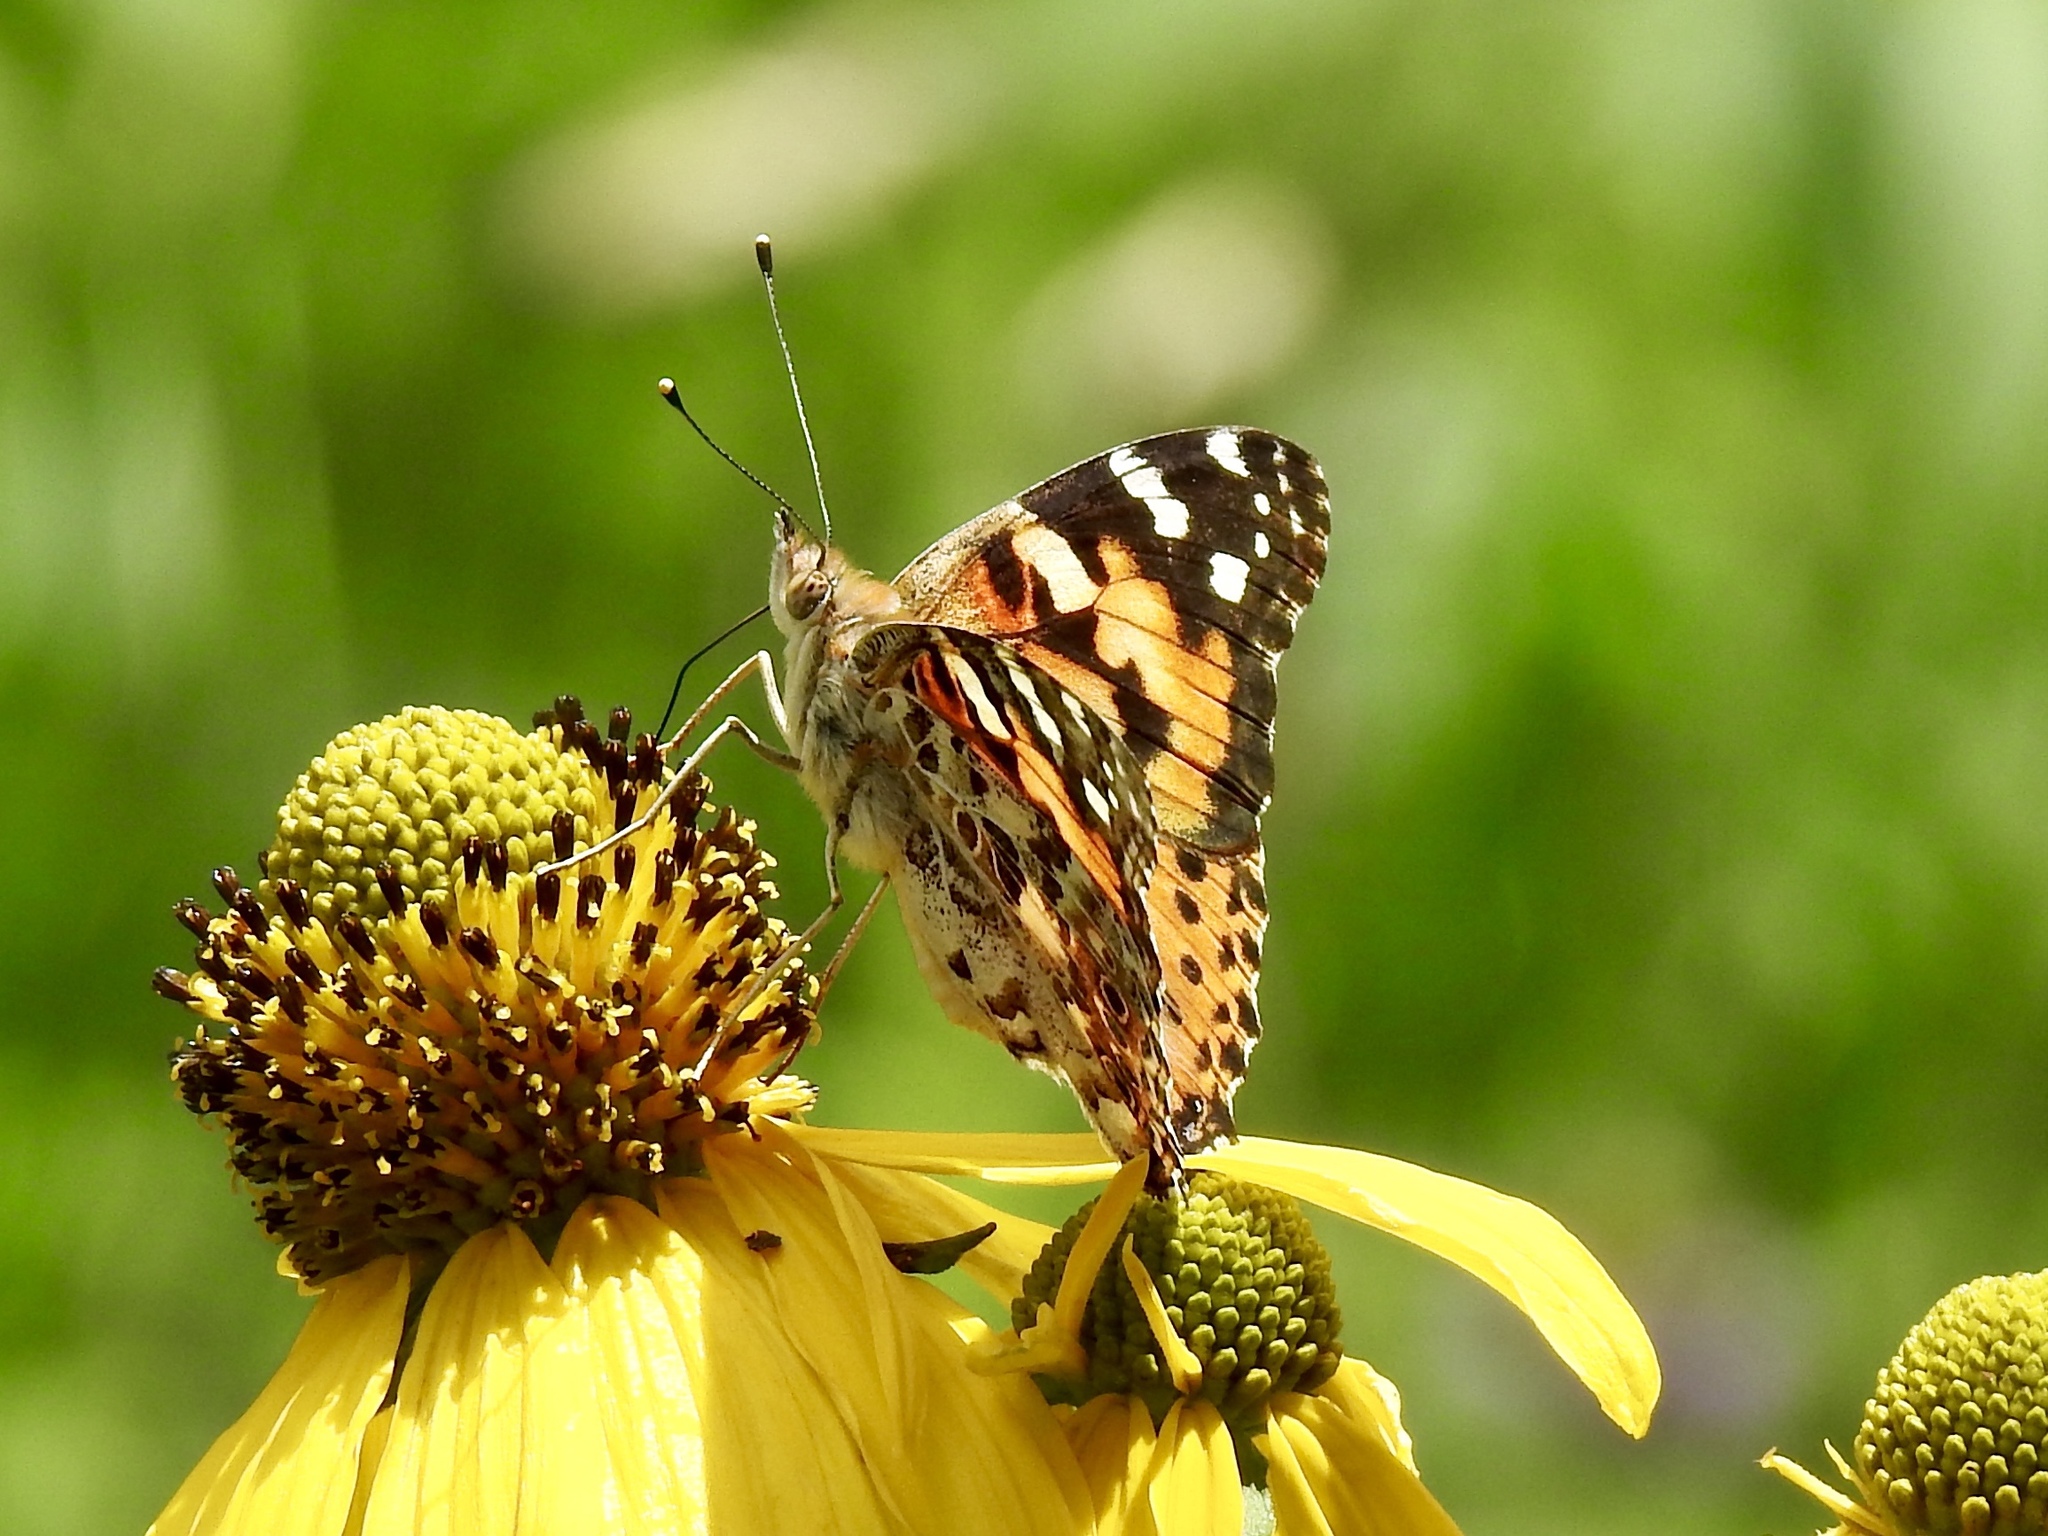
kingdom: Animalia
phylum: Arthropoda
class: Insecta
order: Lepidoptera
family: Nymphalidae
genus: Vanessa
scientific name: Vanessa cardui
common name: Painted lady
